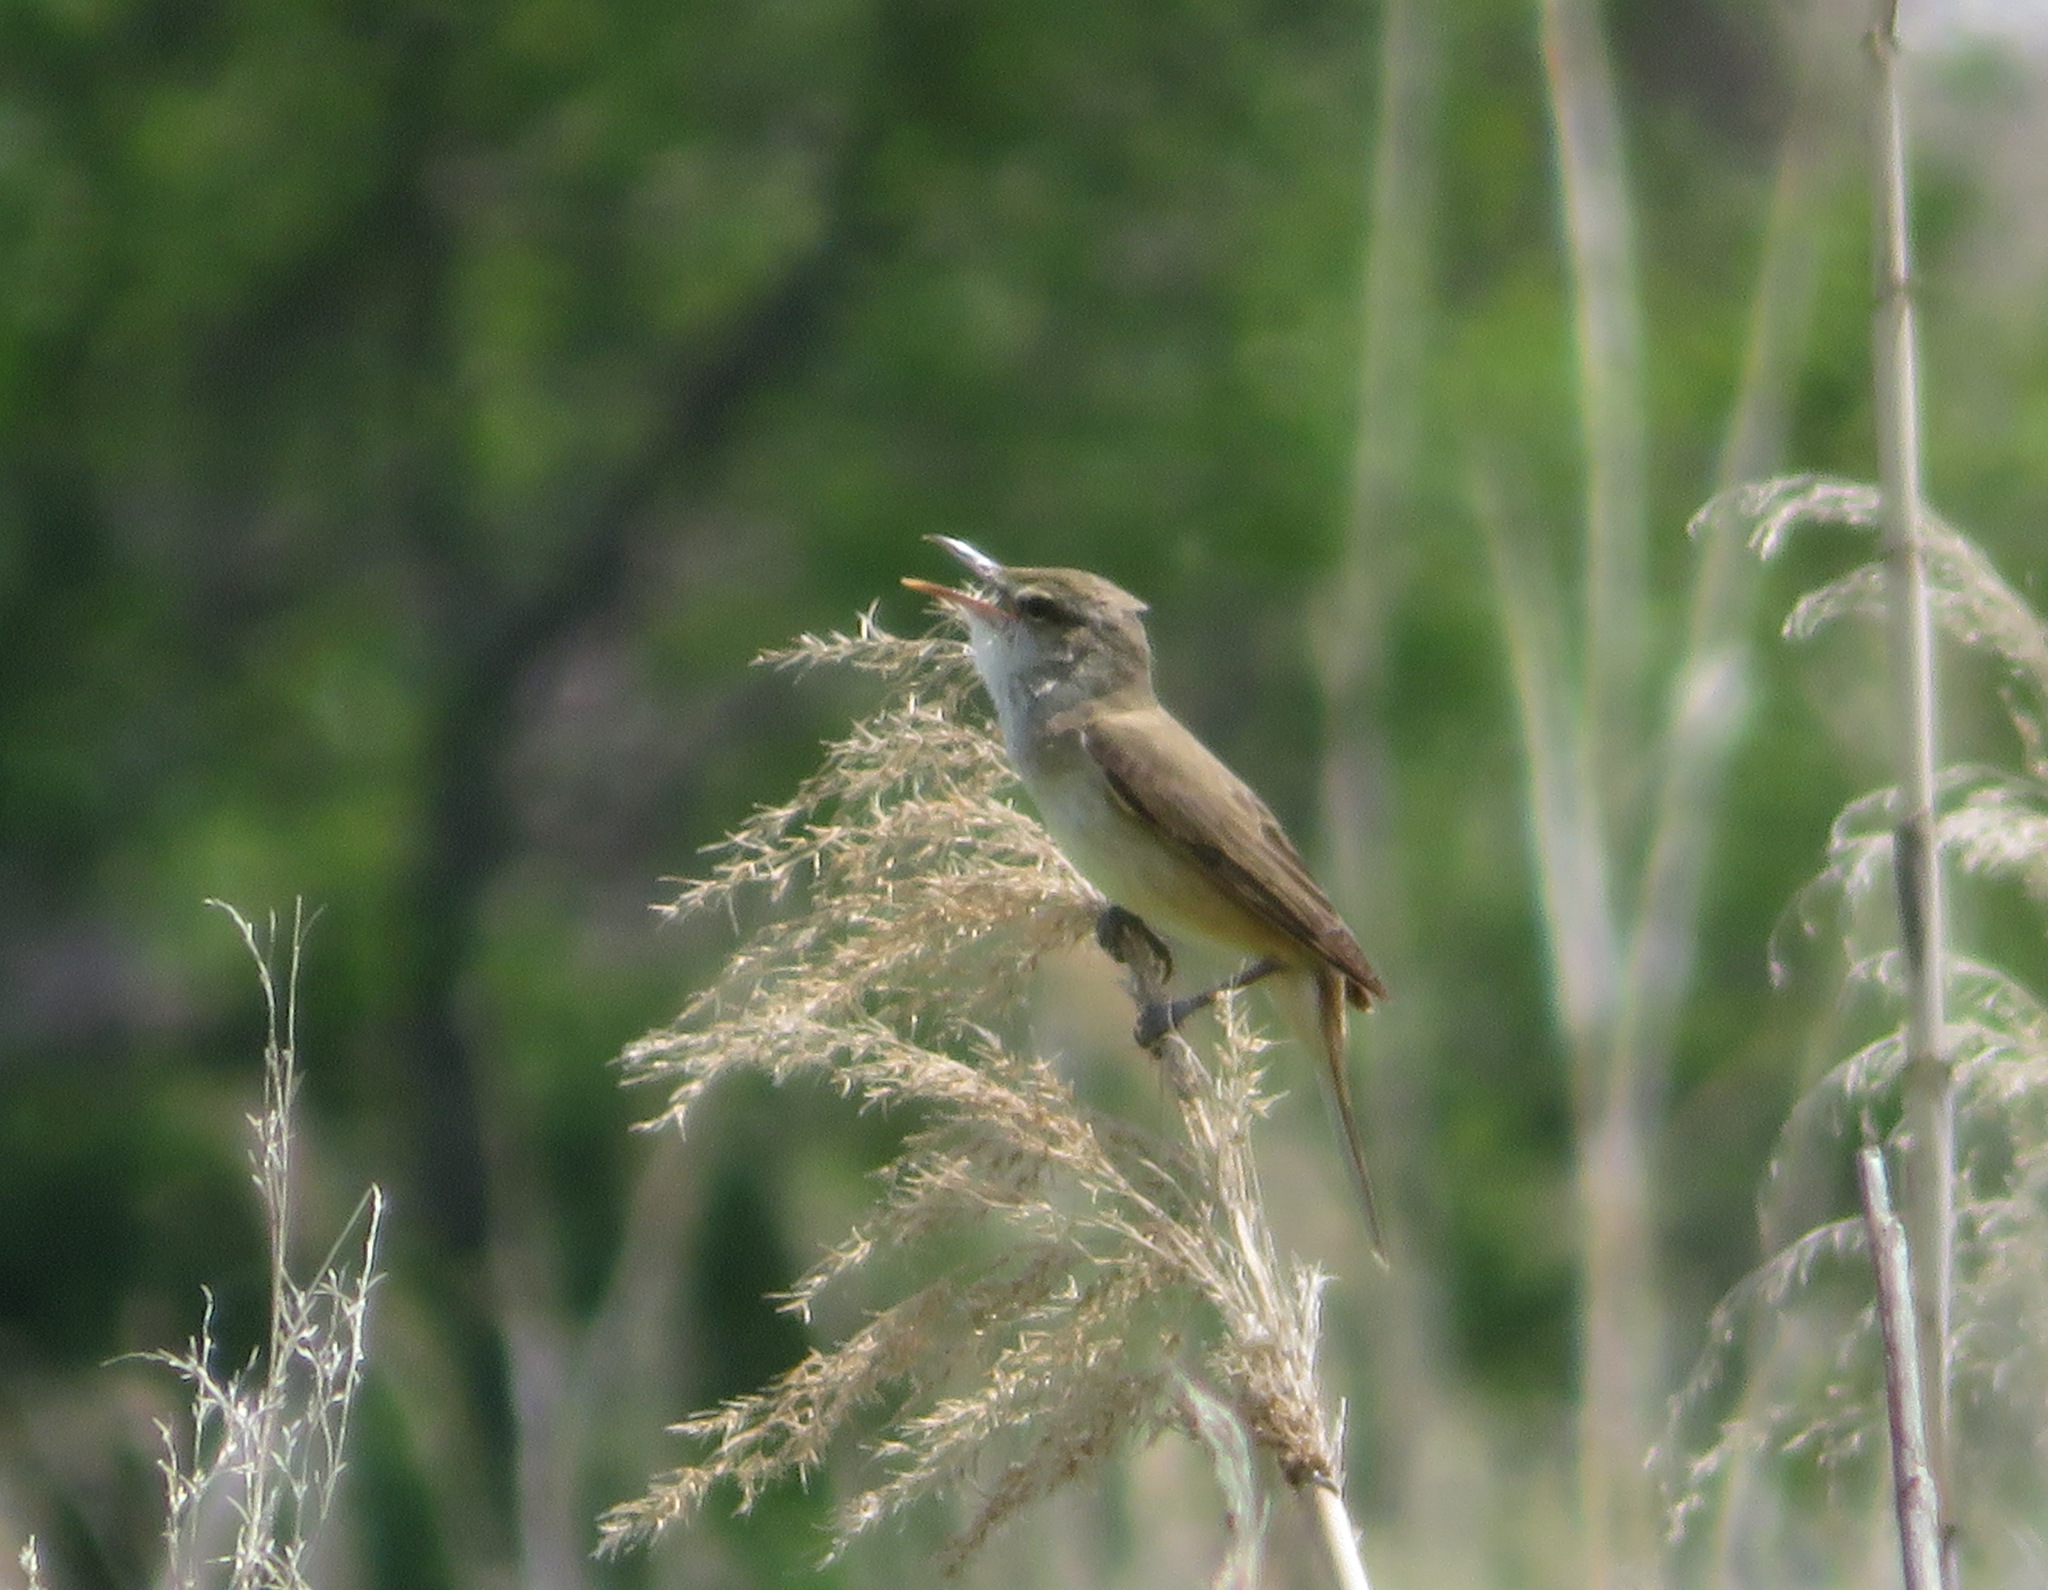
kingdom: Animalia
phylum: Chordata
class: Aves
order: Passeriformes
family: Acrocephalidae
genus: Acrocephalus
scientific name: Acrocephalus orientalis
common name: Oriental reed warbler
